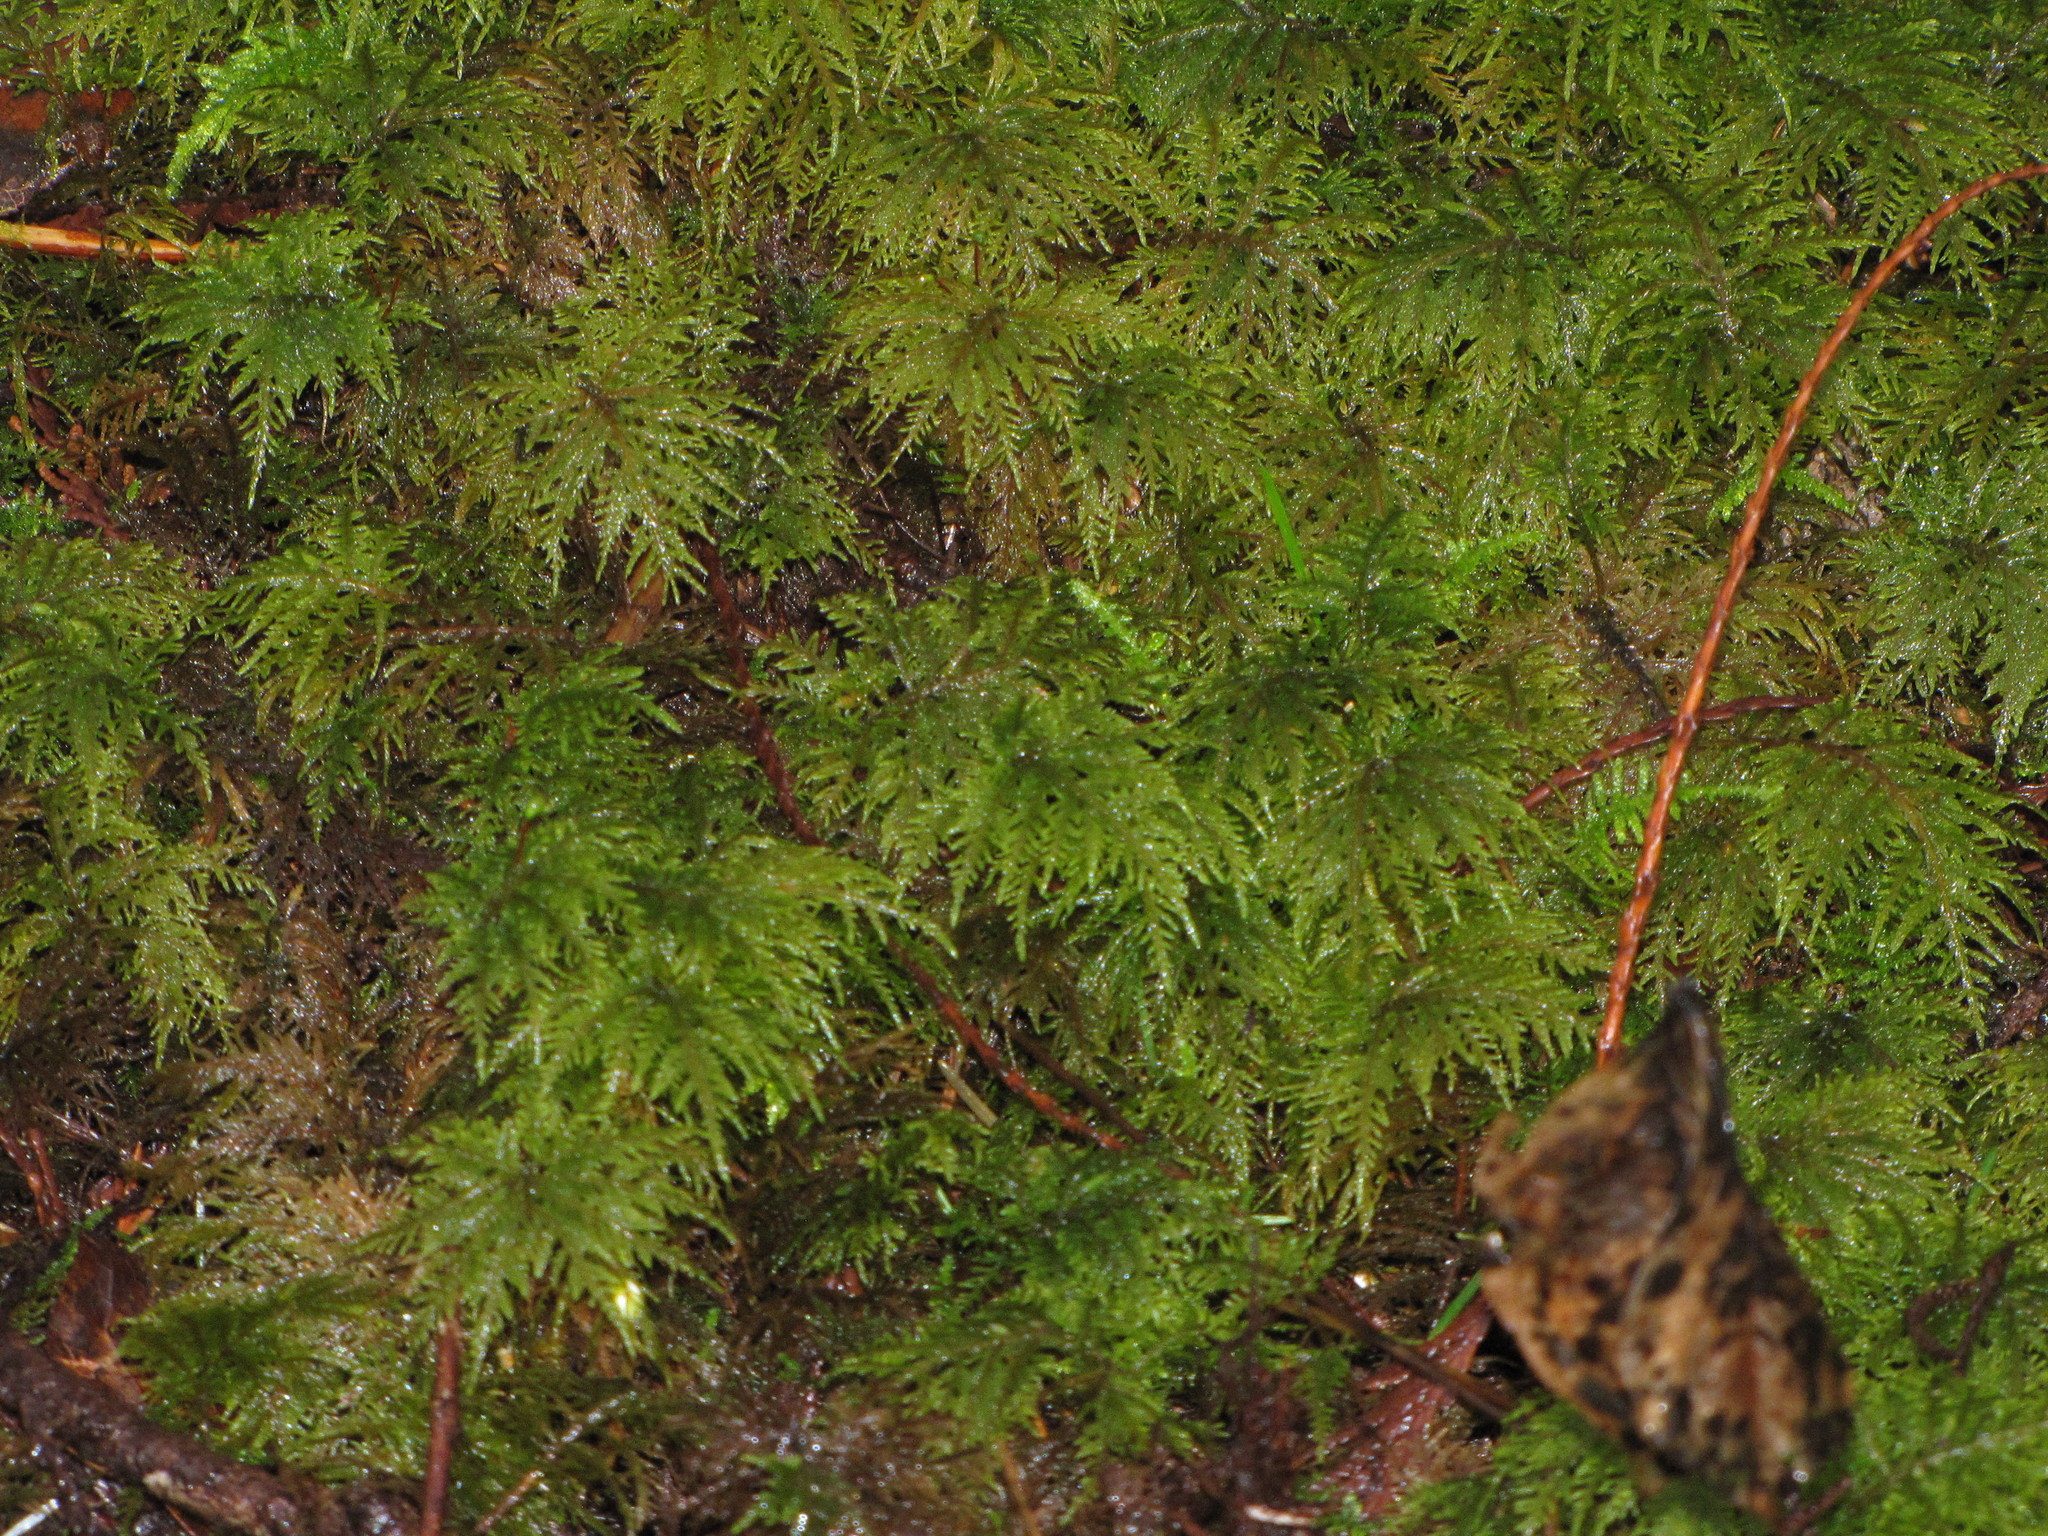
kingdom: Plantae
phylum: Bryophyta
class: Bryopsida
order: Hypnales
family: Hylocomiaceae
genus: Hylocomium
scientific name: Hylocomium splendens
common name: Stairstep moss
